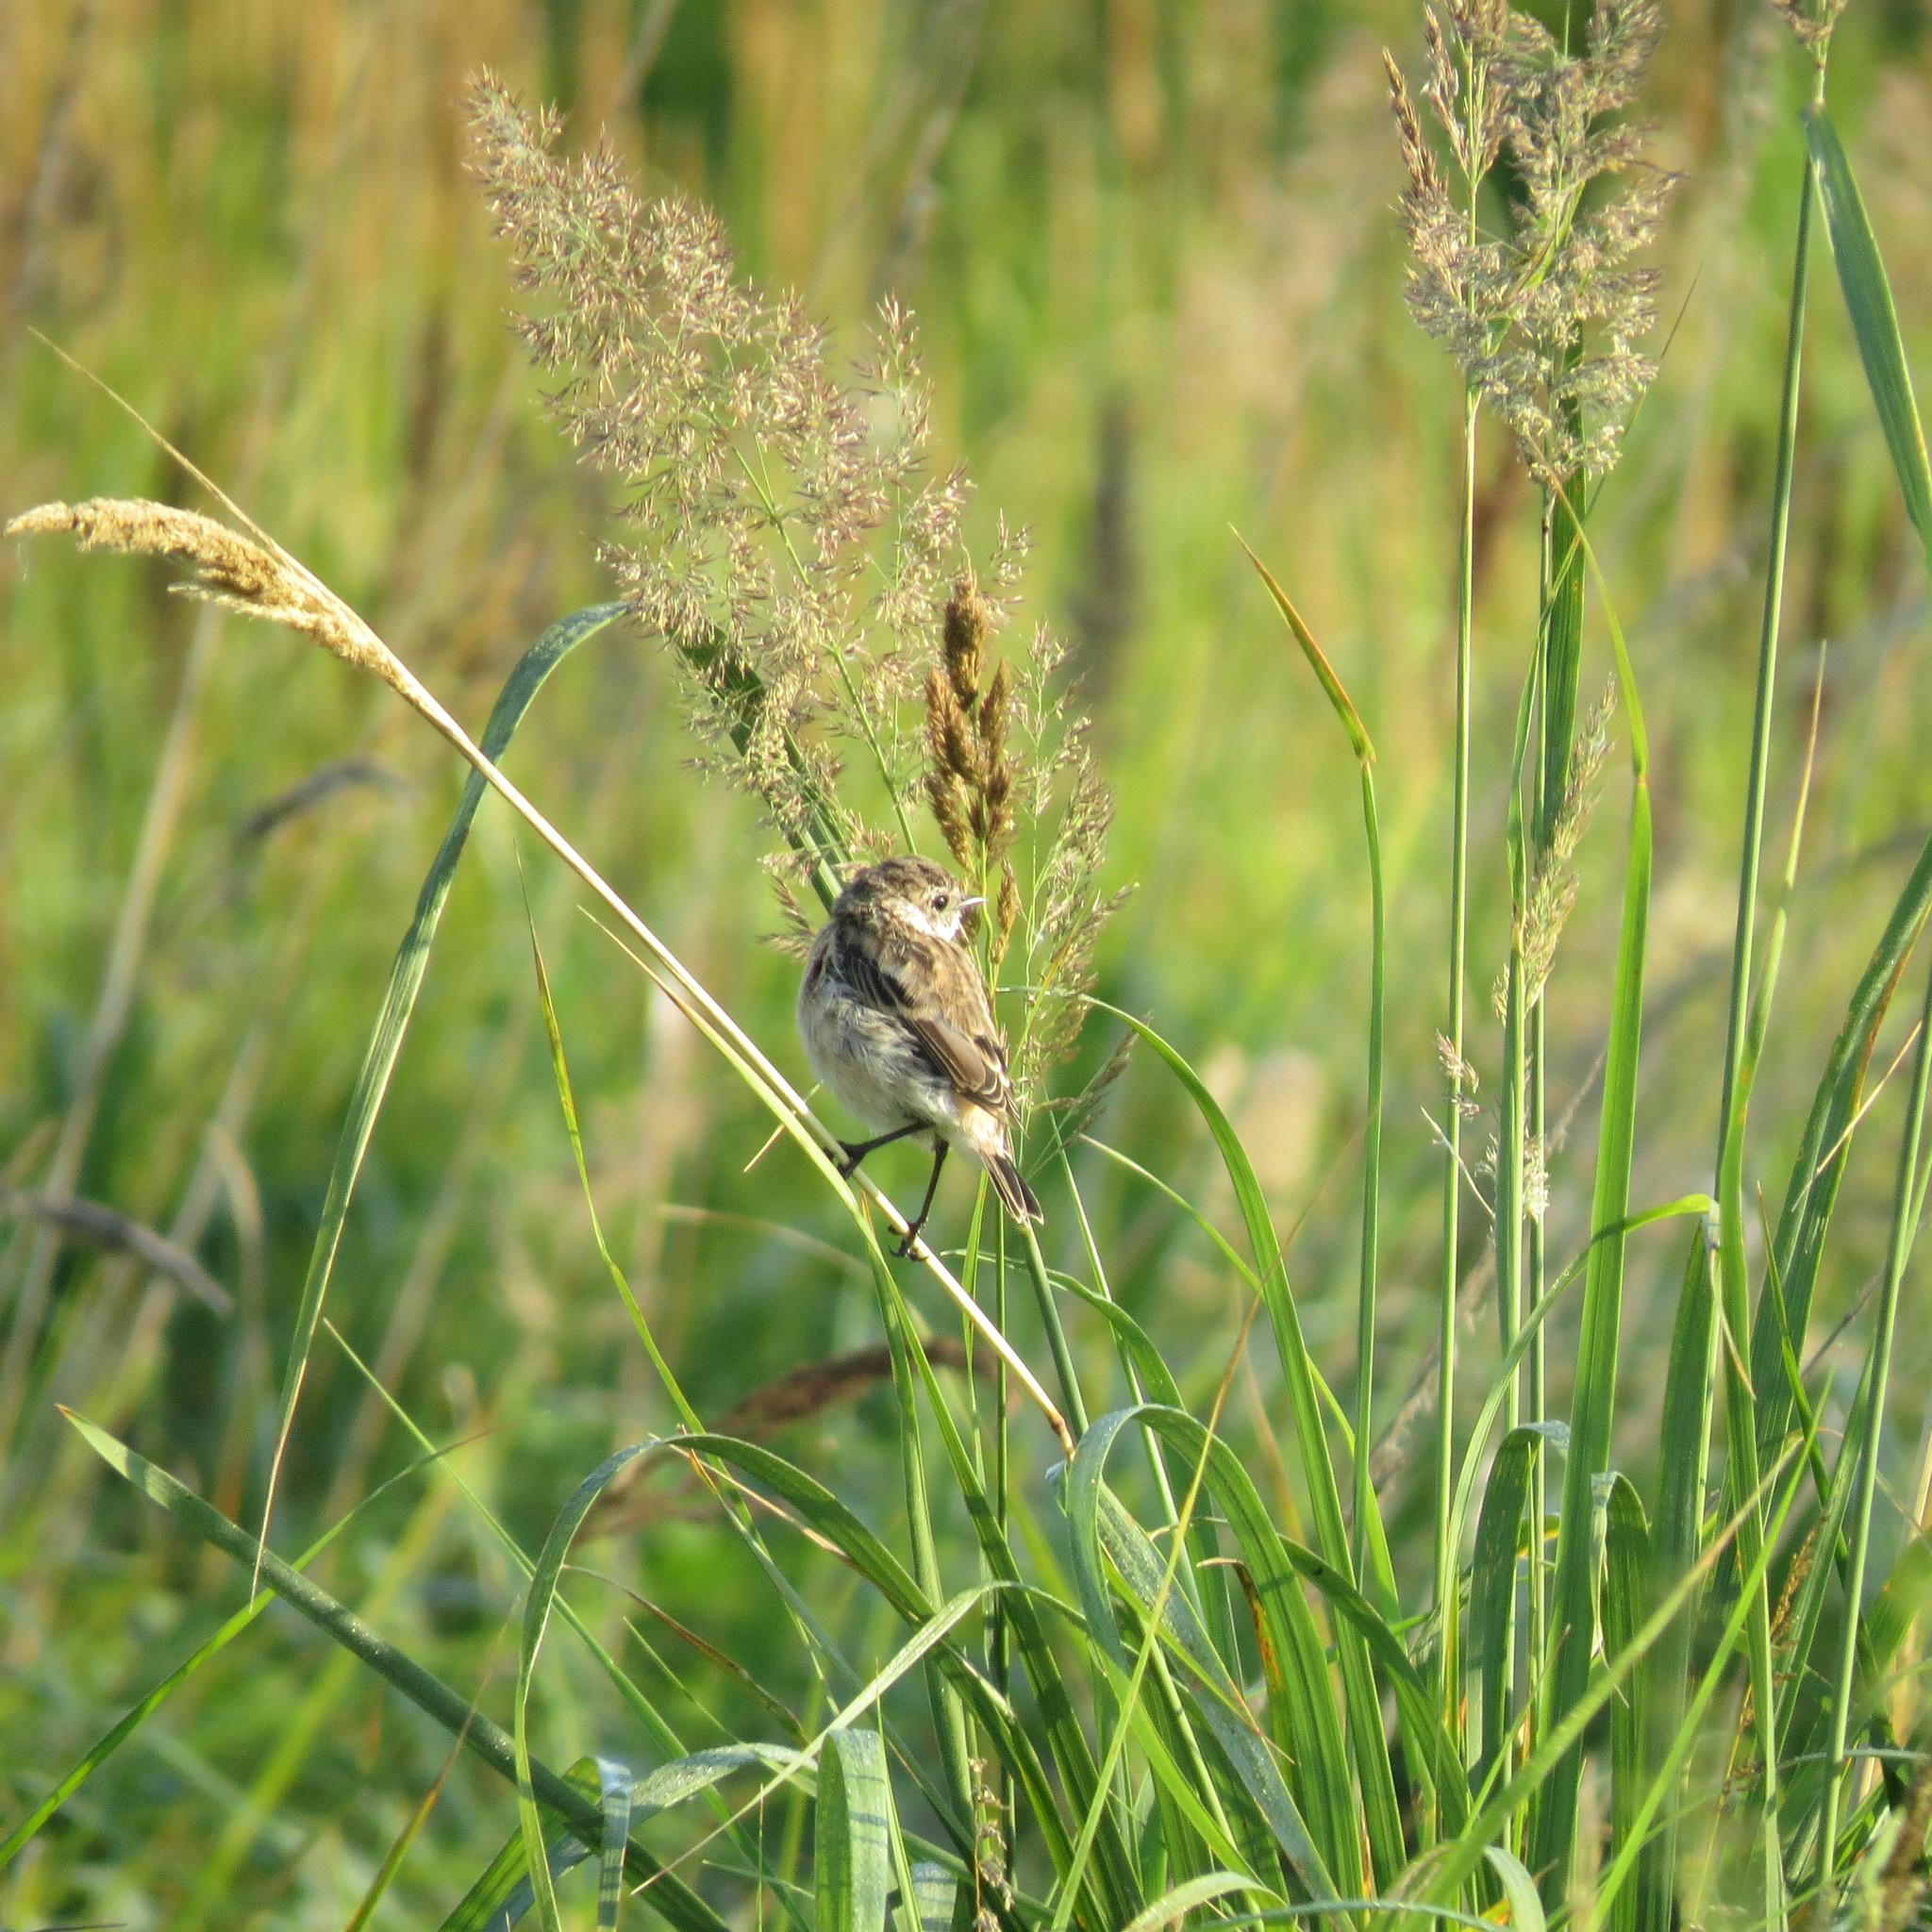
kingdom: Animalia
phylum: Chordata
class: Aves
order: Passeriformes
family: Muscicapidae
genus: Saxicola
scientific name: Saxicola maurus
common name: Siberian stonechat
